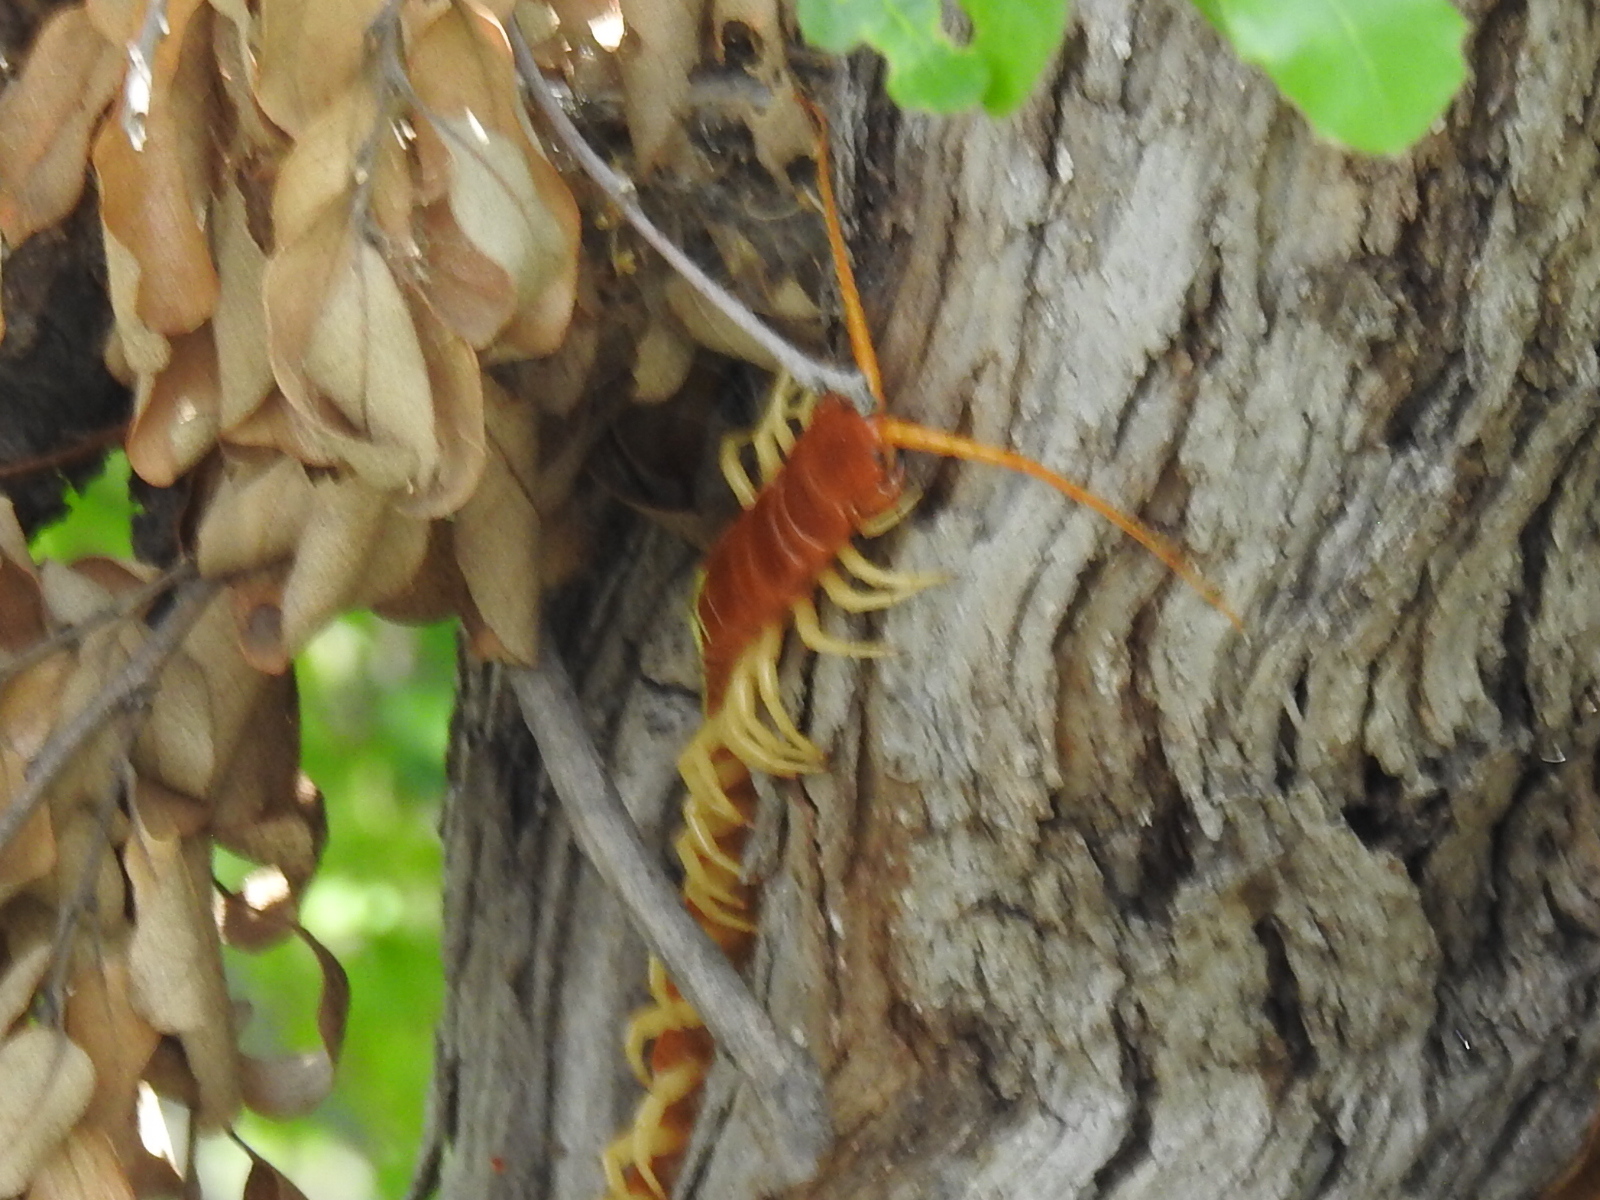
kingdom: Animalia
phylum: Arthropoda
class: Chilopoda
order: Scolopendromorpha
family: Scolopendridae
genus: Scolopendra
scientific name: Scolopendra heros
